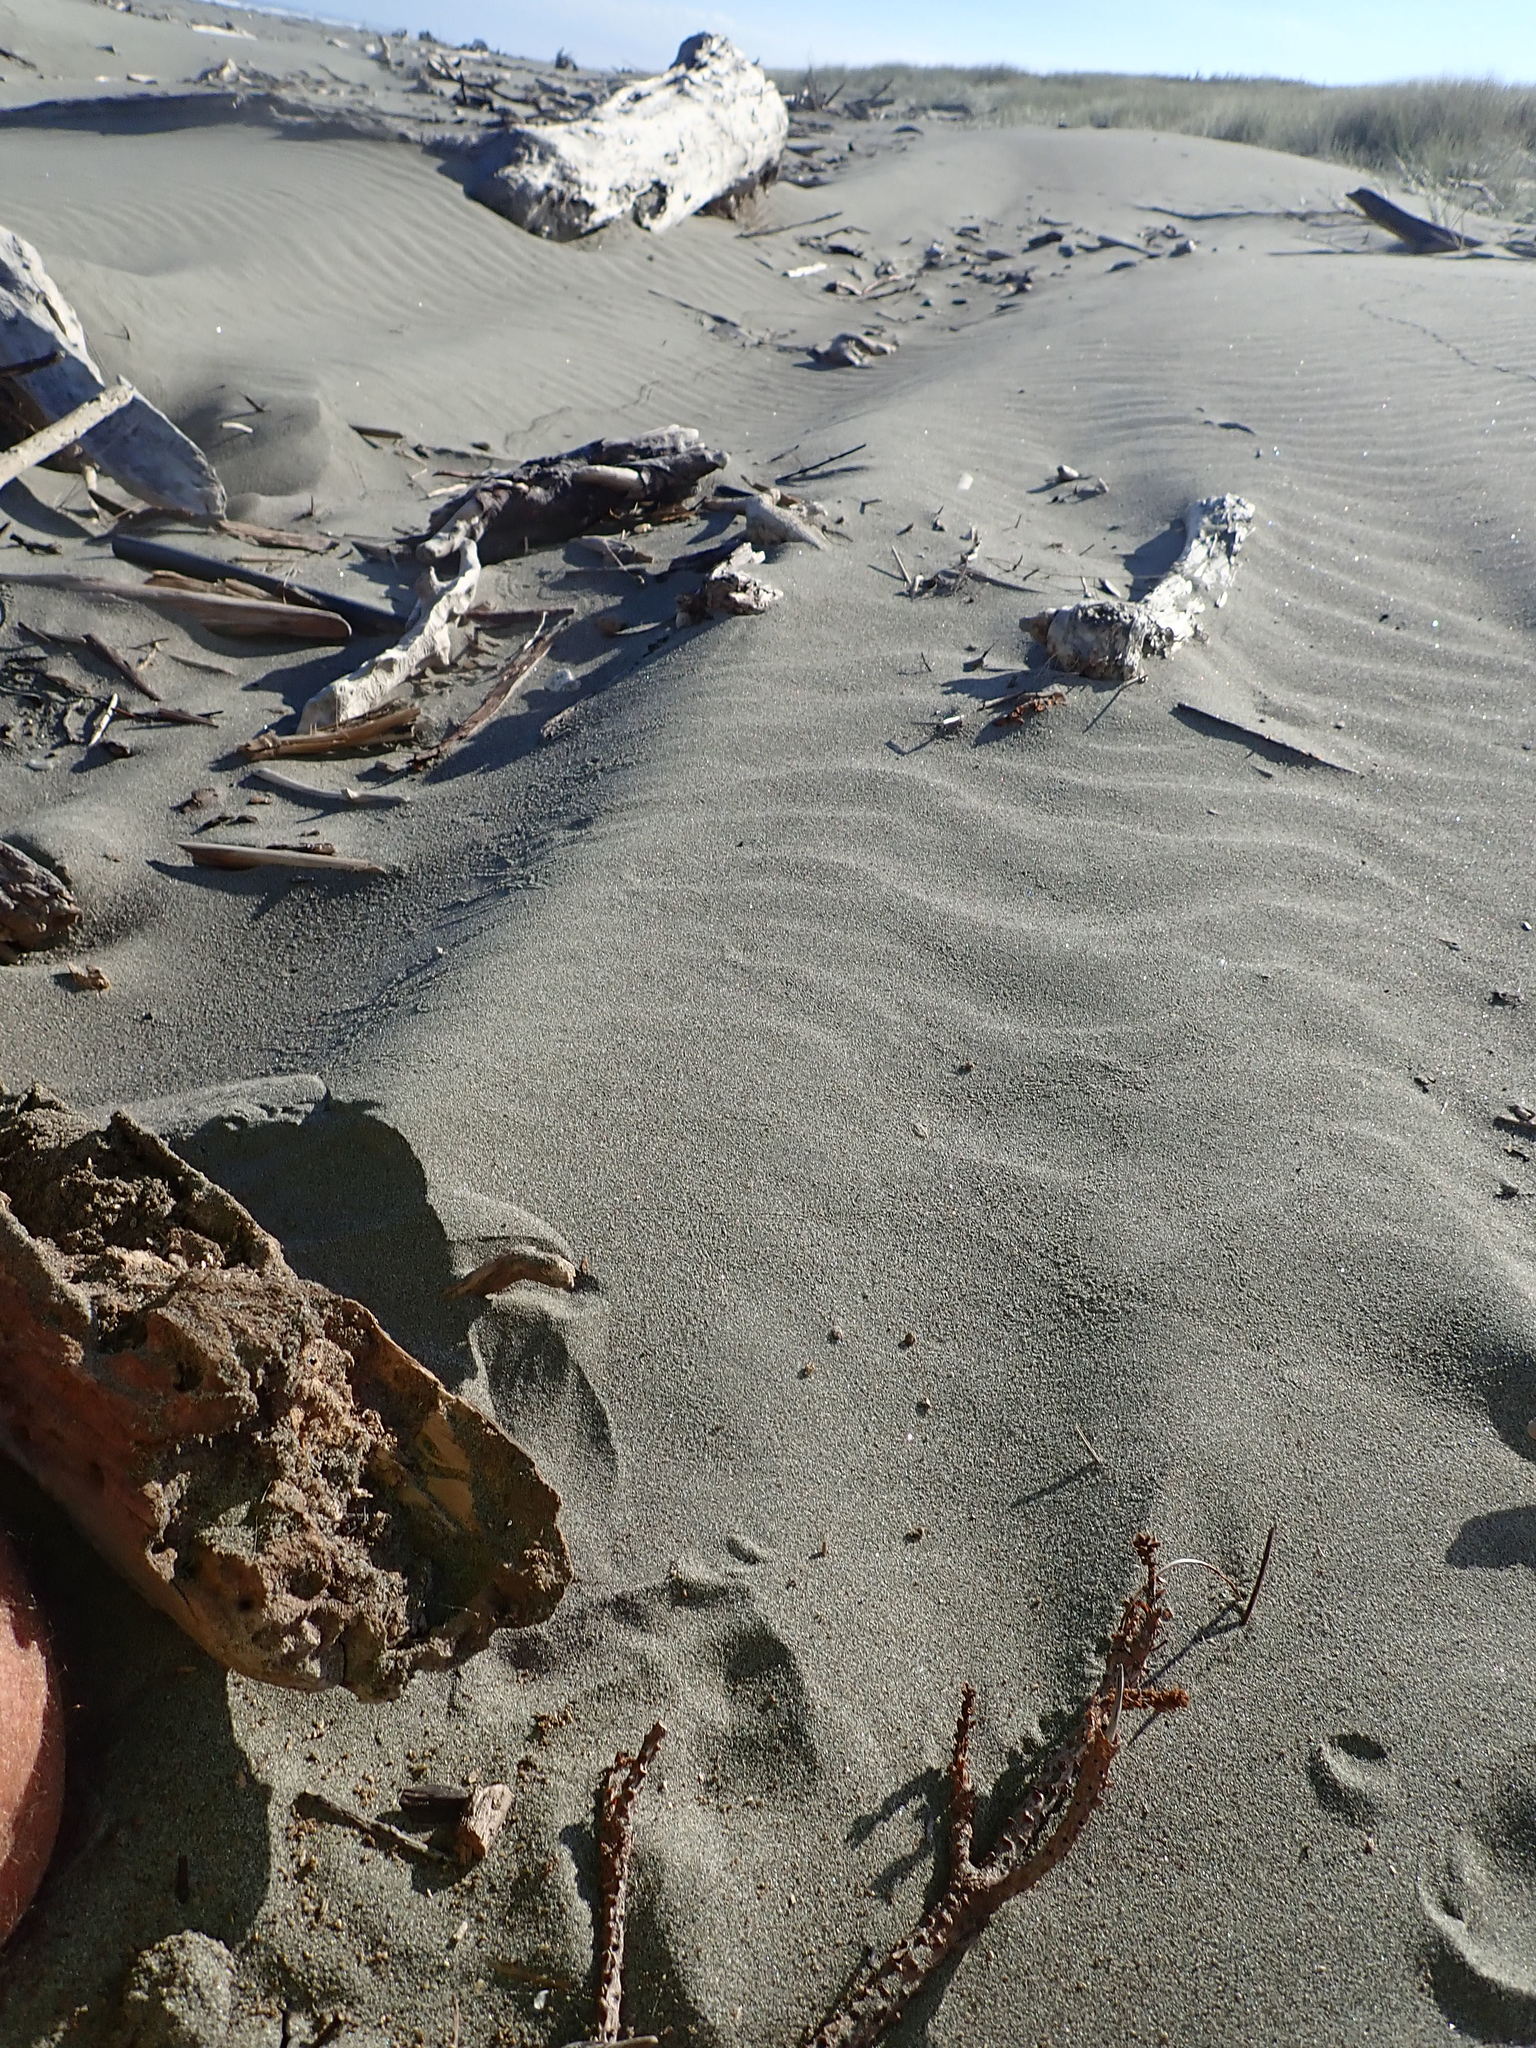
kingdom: Animalia
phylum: Arthropoda
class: Arachnida
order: Araneae
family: Theridiidae
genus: Latrodectus
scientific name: Latrodectus katipo
